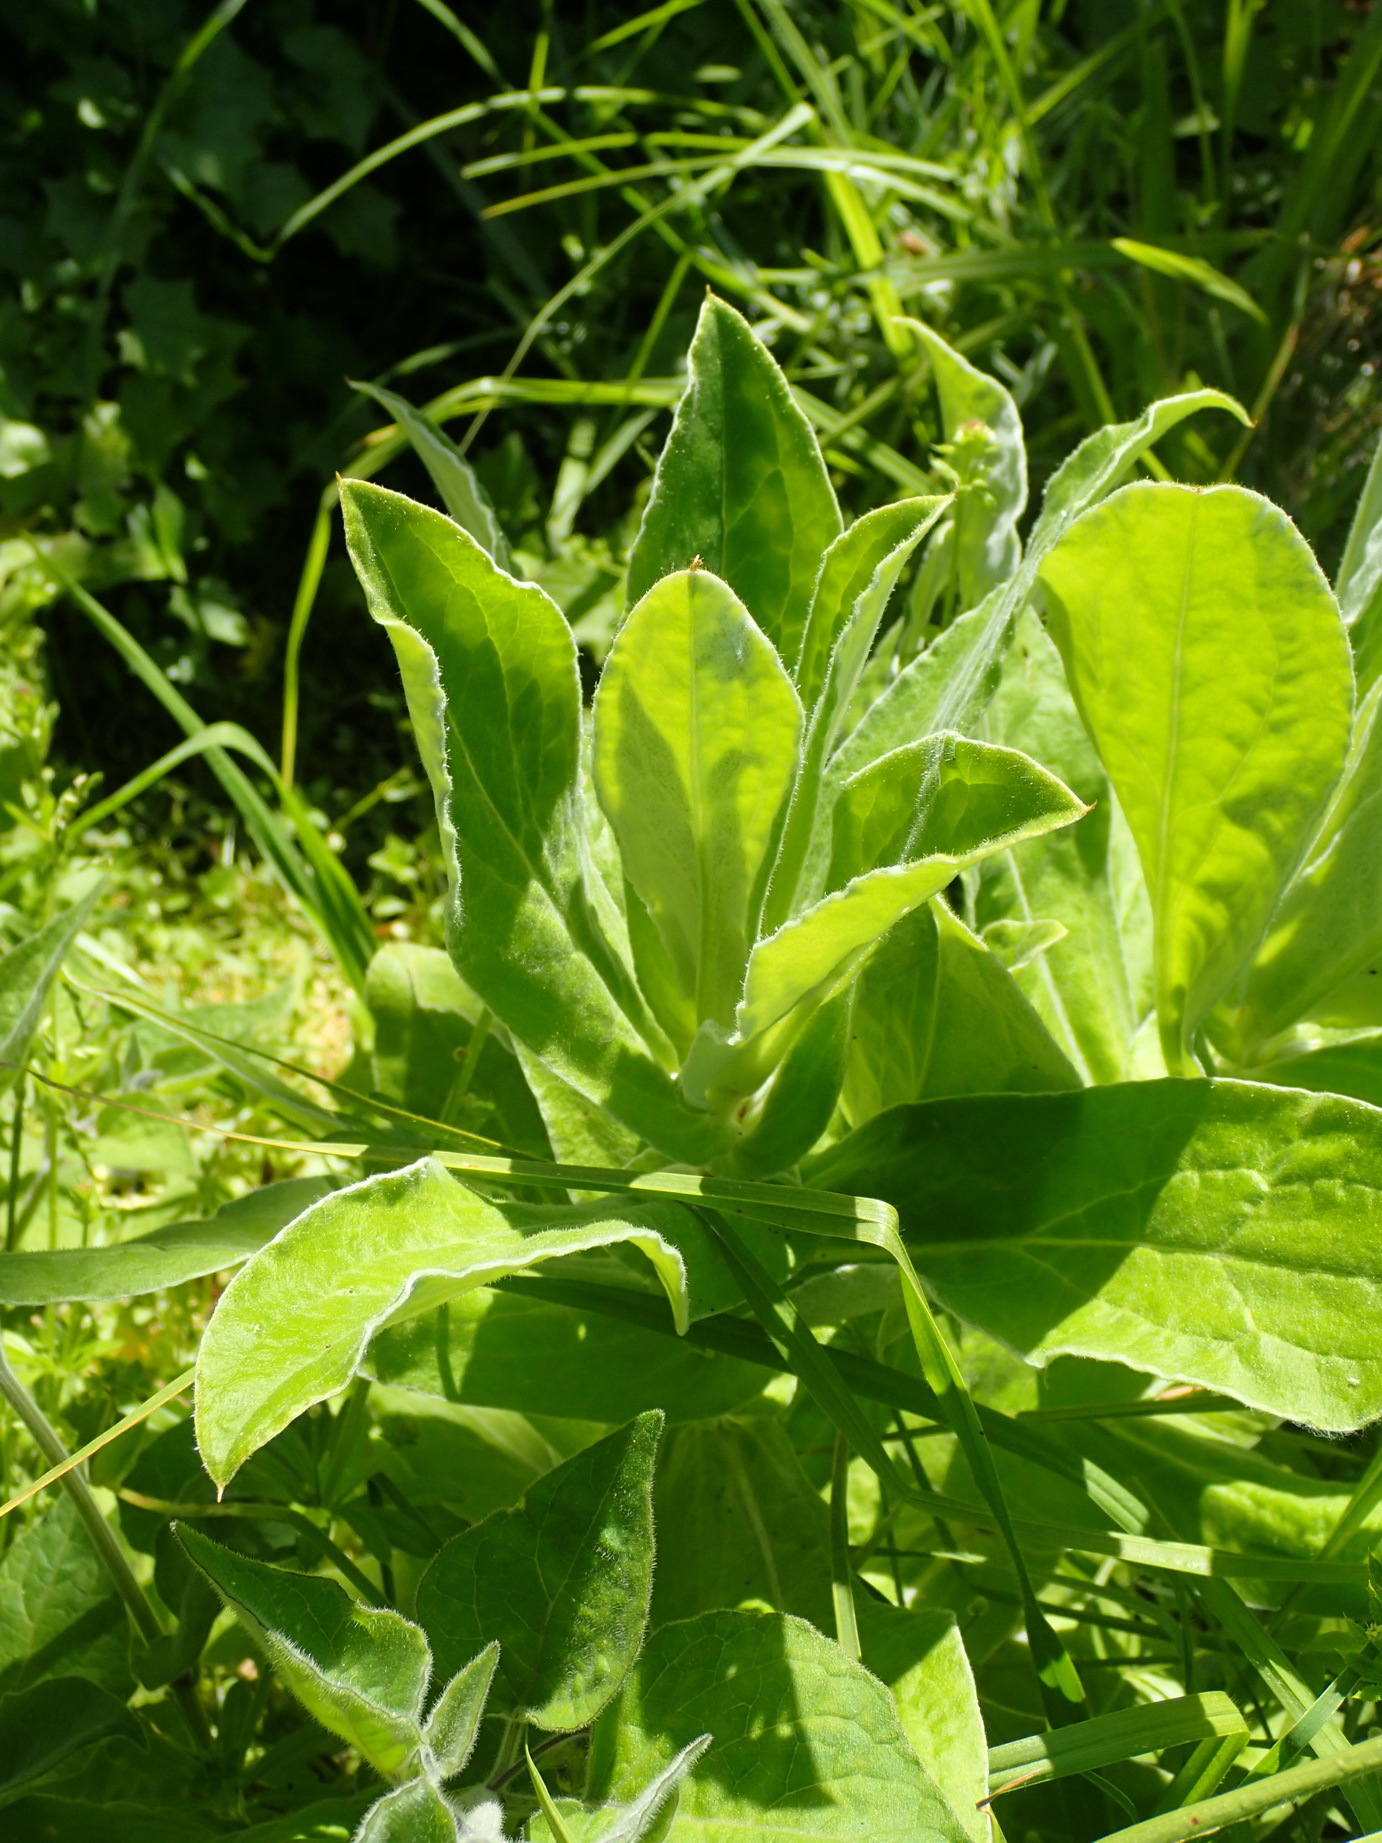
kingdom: Plantae
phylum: Tracheophyta
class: Magnoliopsida
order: Asterales
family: Asteraceae
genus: Helichrysum
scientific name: Helichrysum foetidum
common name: Stinking everlasting
